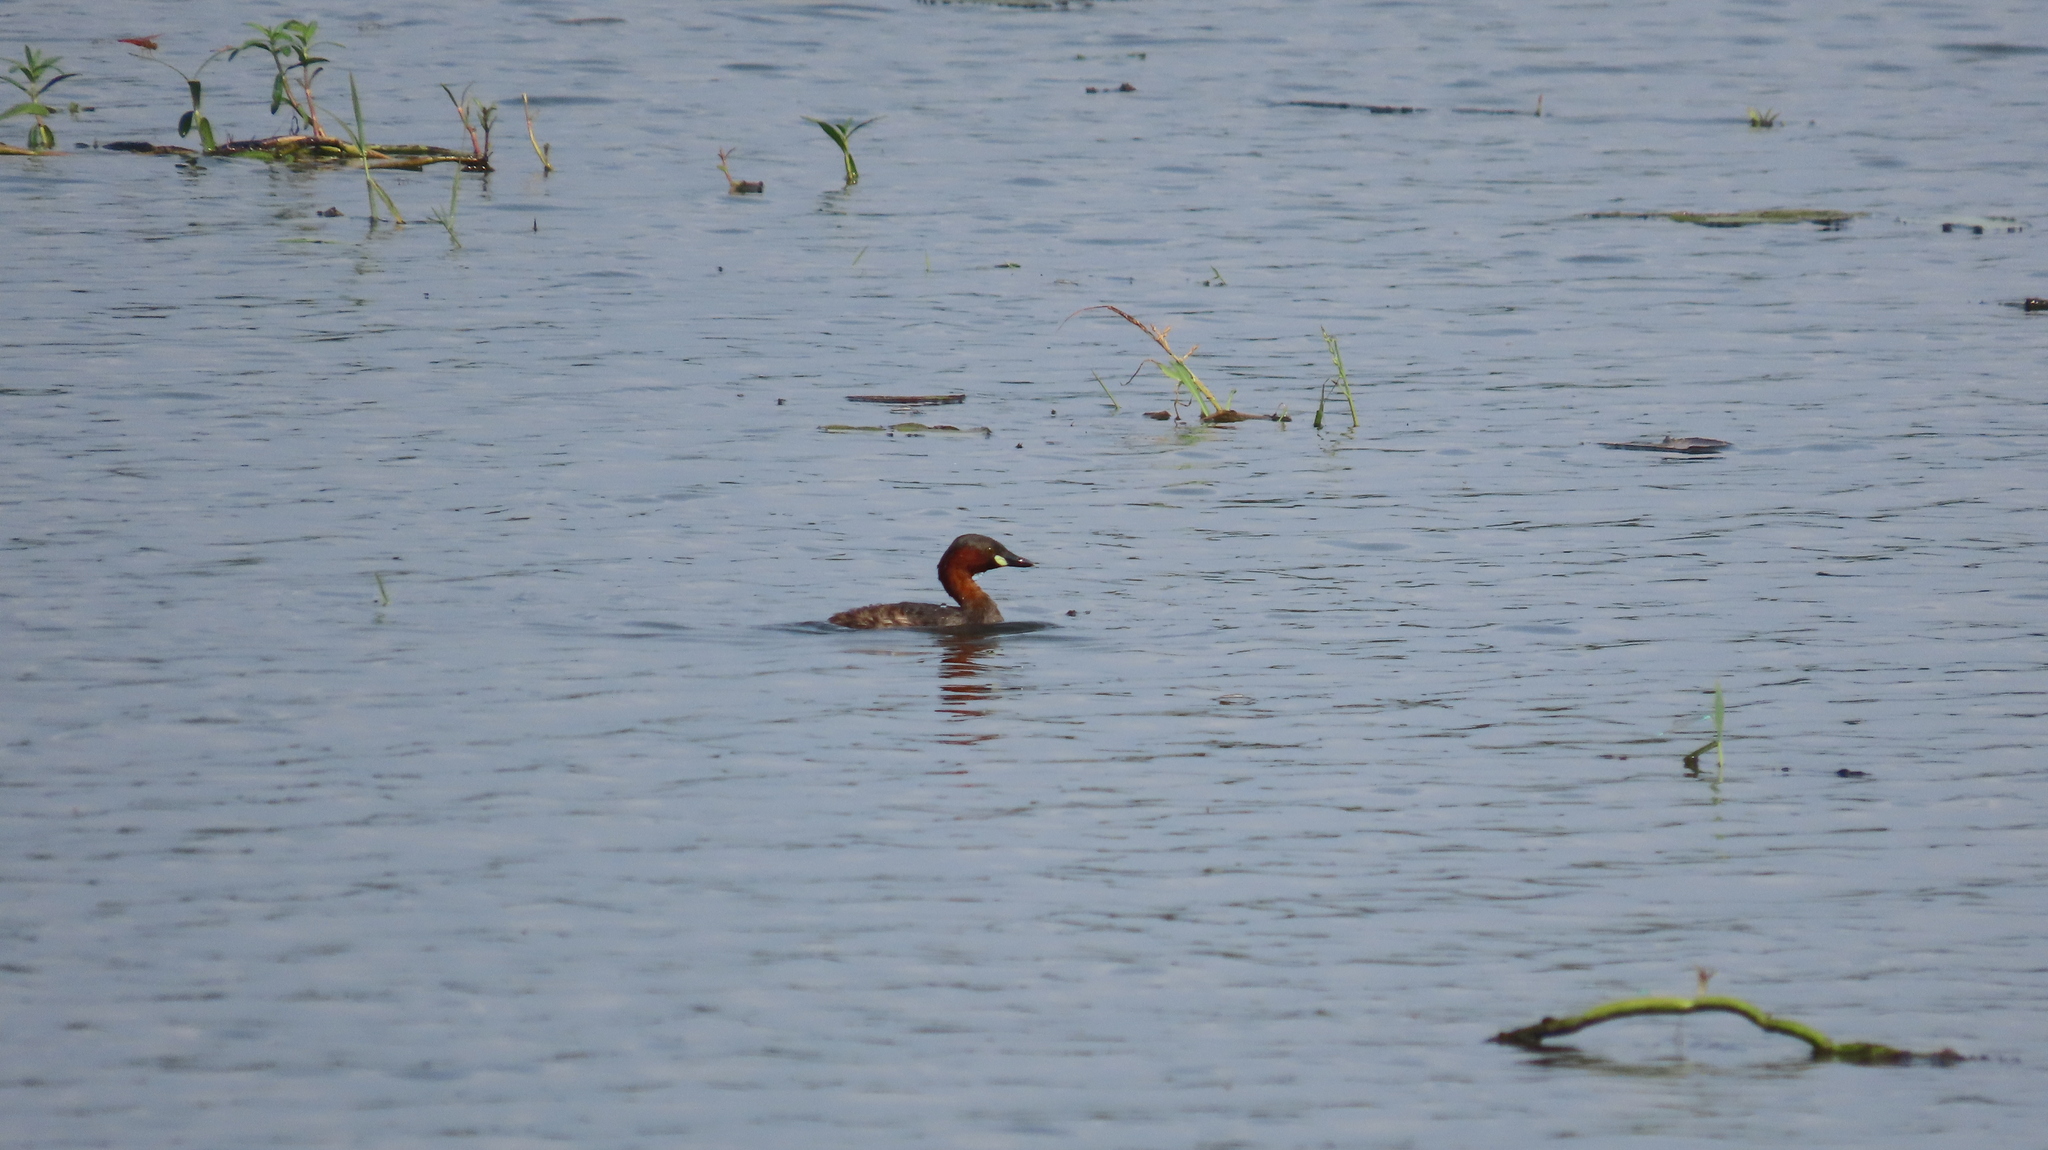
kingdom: Animalia
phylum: Chordata
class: Aves
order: Podicipediformes
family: Podicipedidae
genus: Tachybaptus
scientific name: Tachybaptus ruficollis
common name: Little grebe
